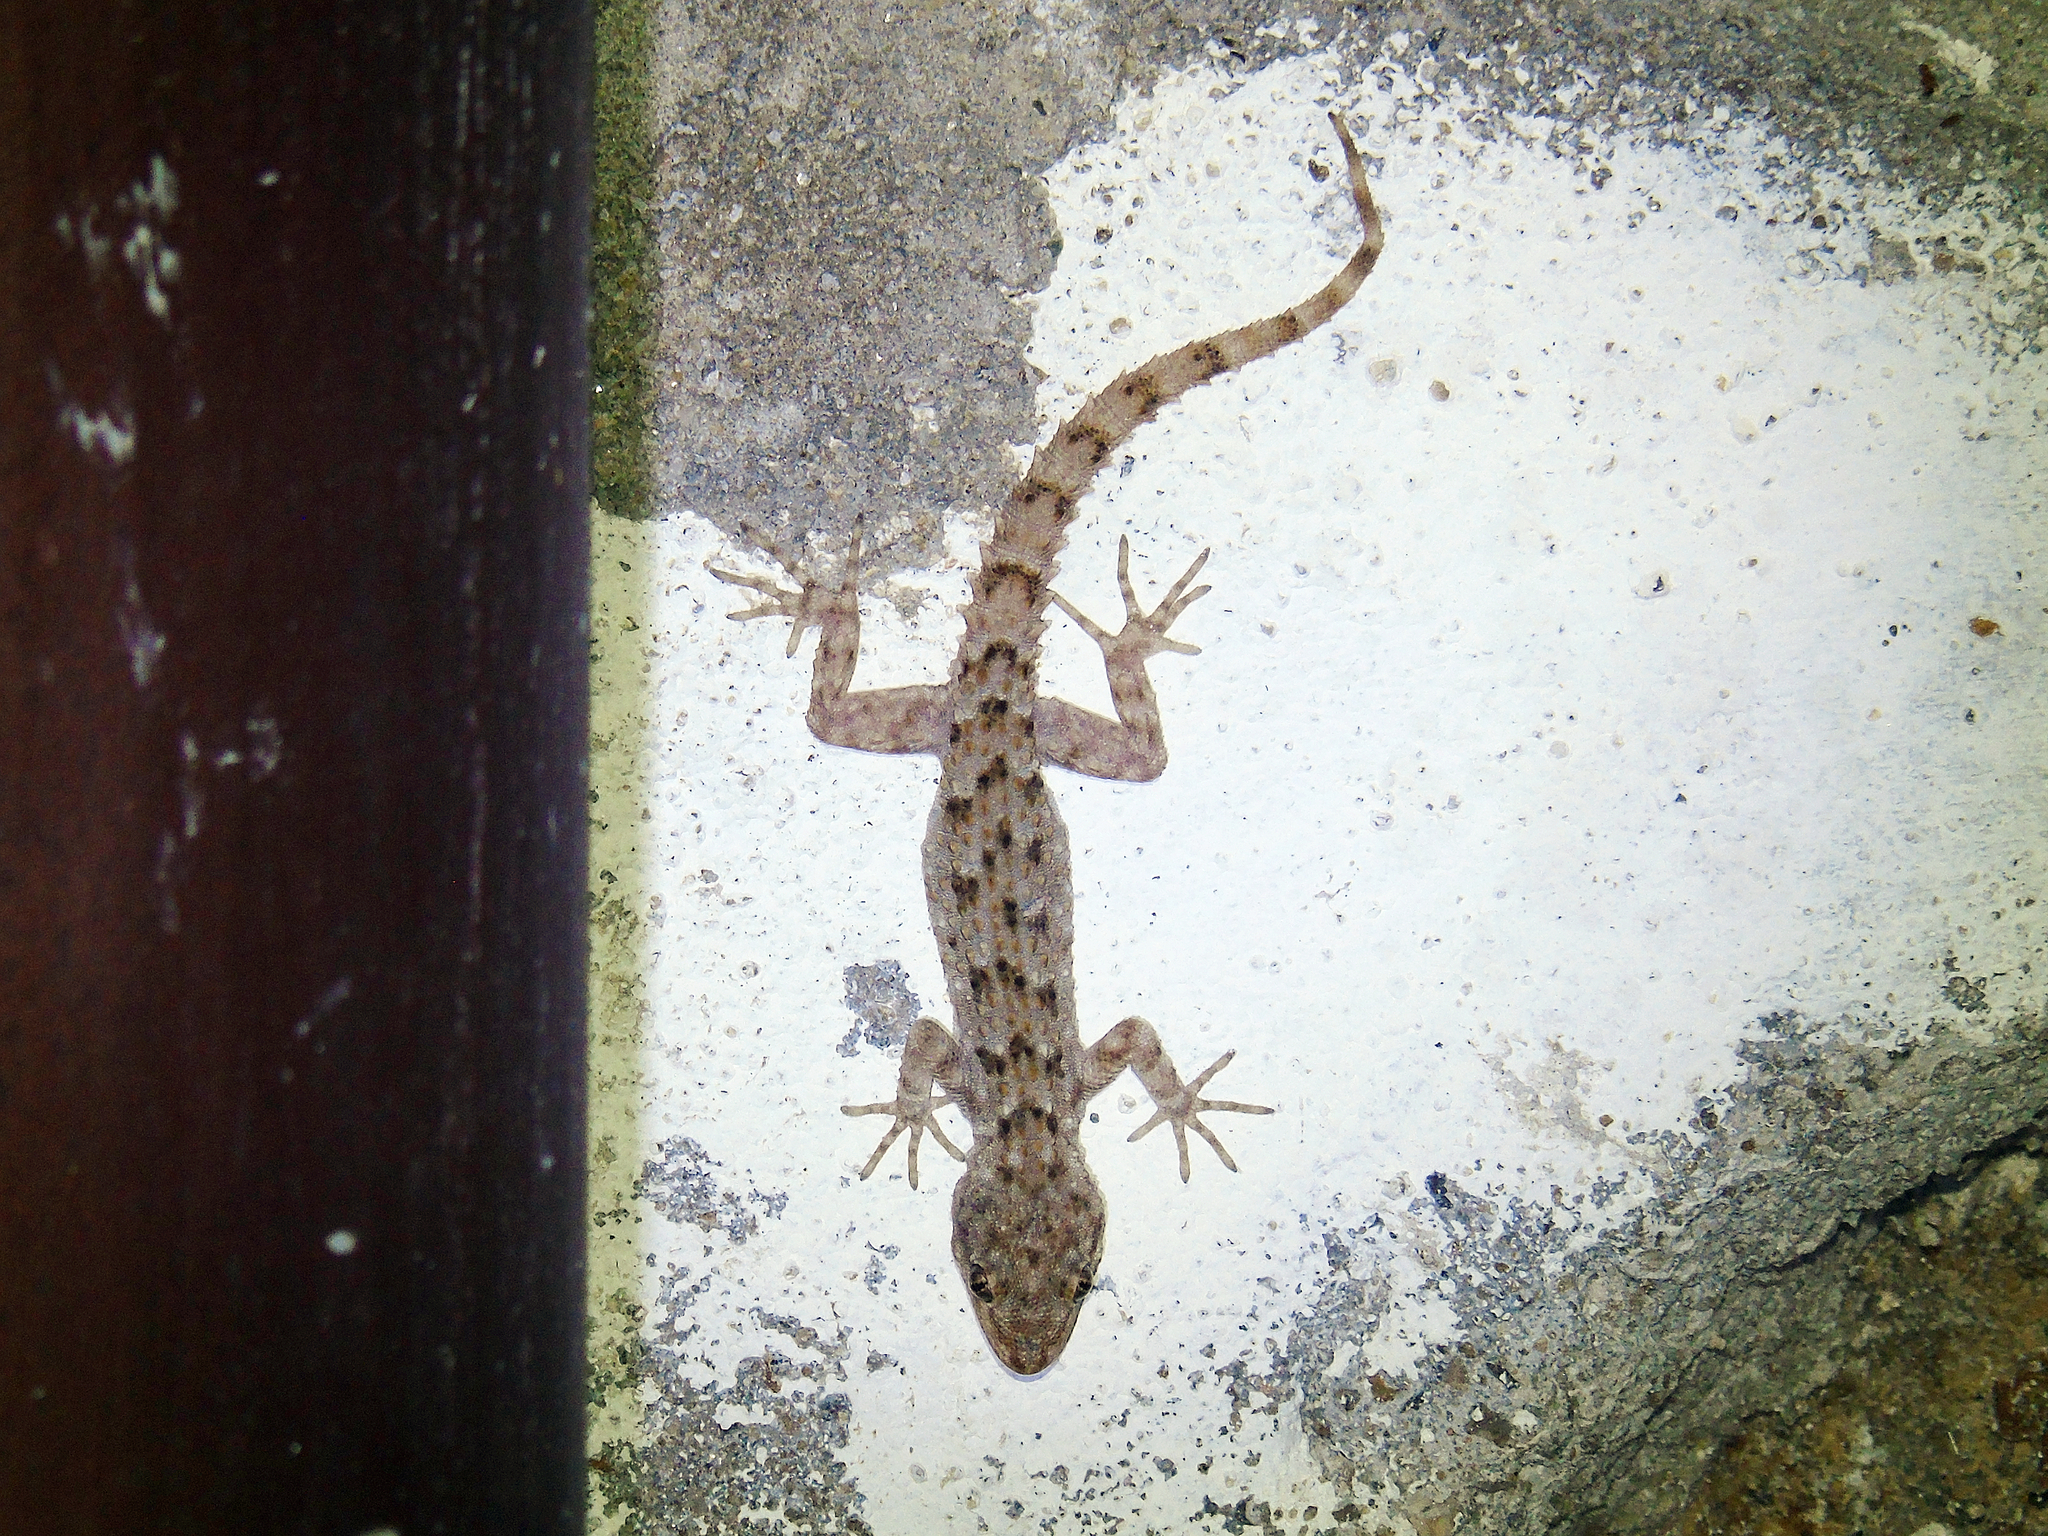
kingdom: Animalia
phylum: Chordata
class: Squamata
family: Gekkonidae
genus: Mediodactylus
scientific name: Mediodactylus kotschyi
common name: Kotschy's gecko
